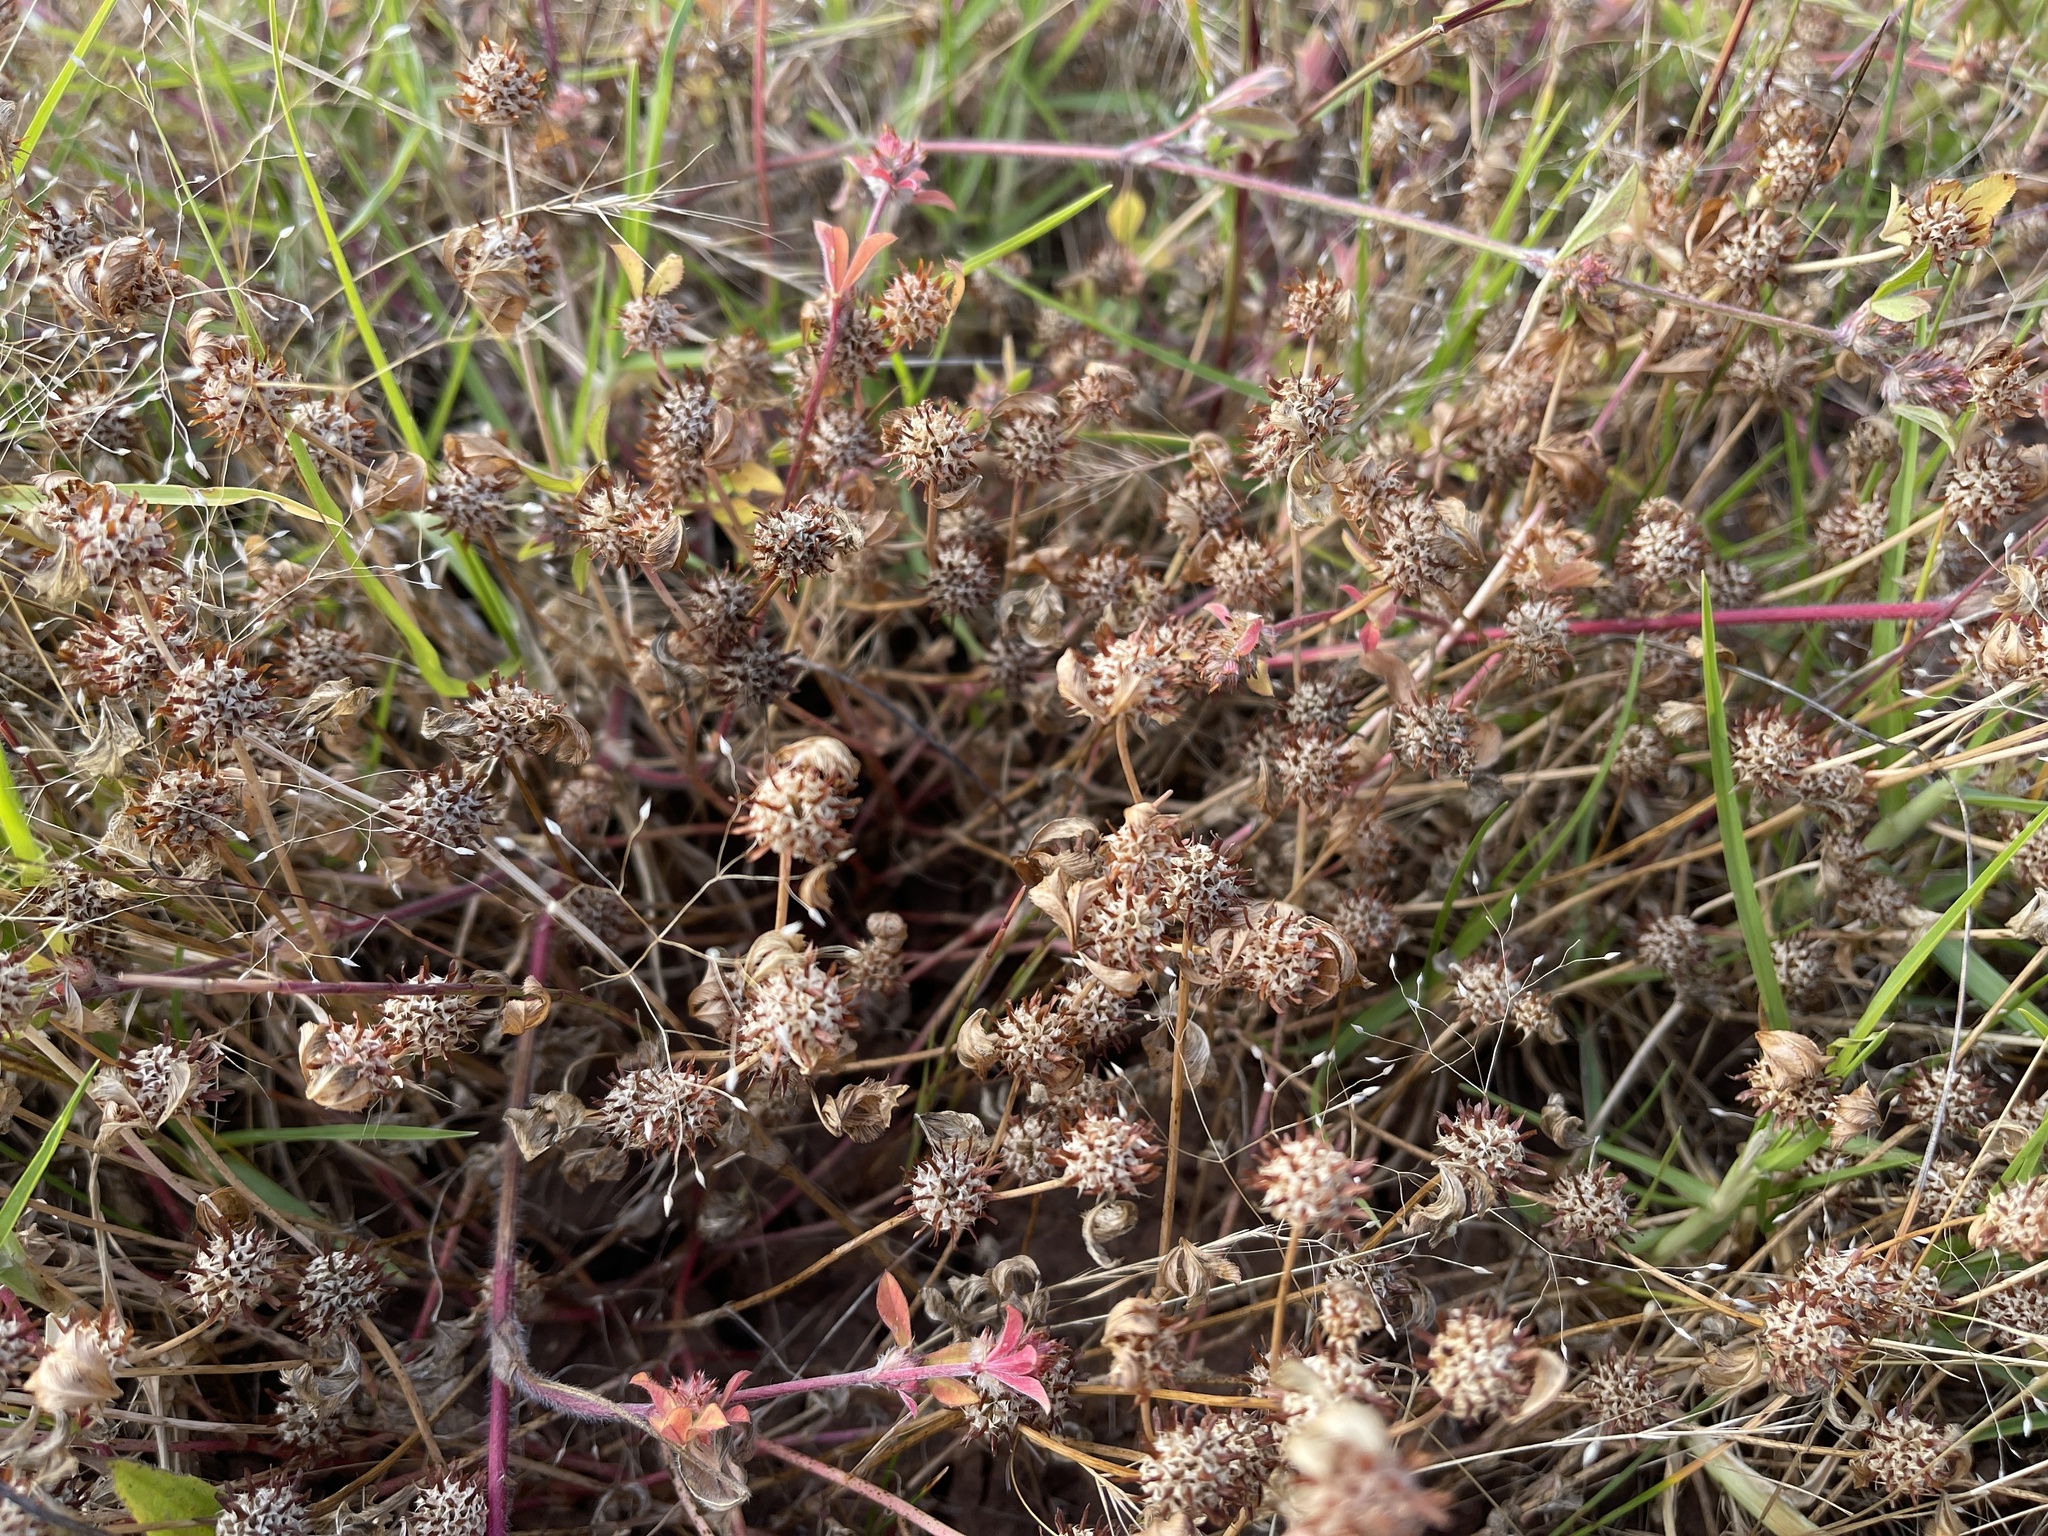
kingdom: Plantae
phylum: Tracheophyta
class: Magnoliopsida
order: Fabales
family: Fabaceae
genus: Trifolium
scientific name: Trifolium glomeratum
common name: Clustered clover
